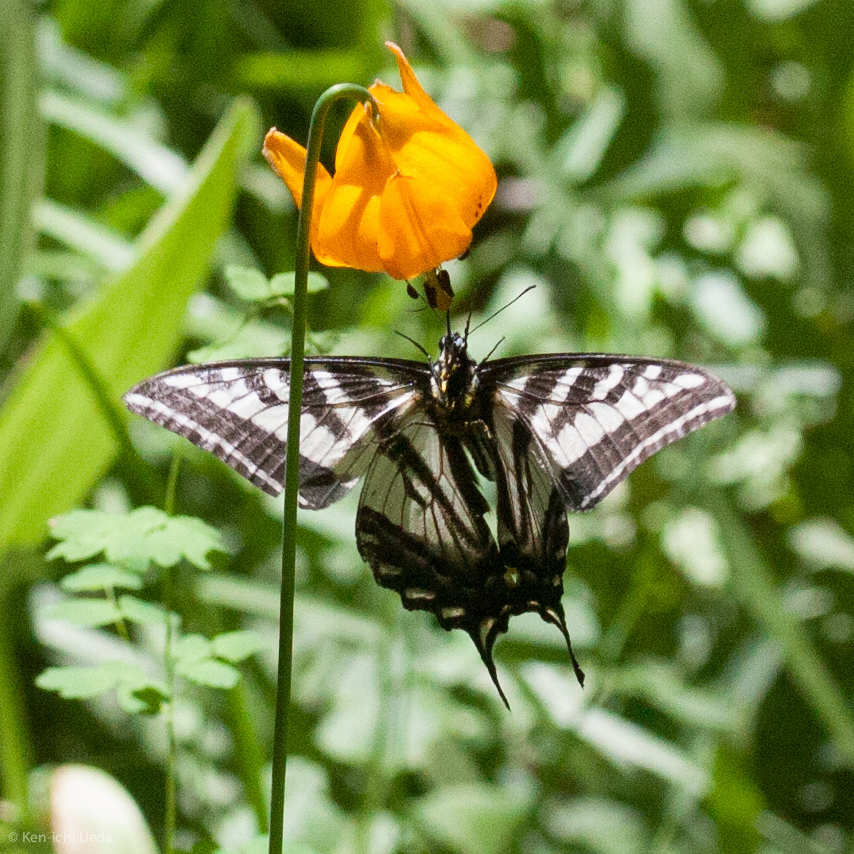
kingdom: Animalia
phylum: Arthropoda
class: Insecta
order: Lepidoptera
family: Papilionidae
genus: Papilio
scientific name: Papilio eurymedon
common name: Pale tiger swallowtail
